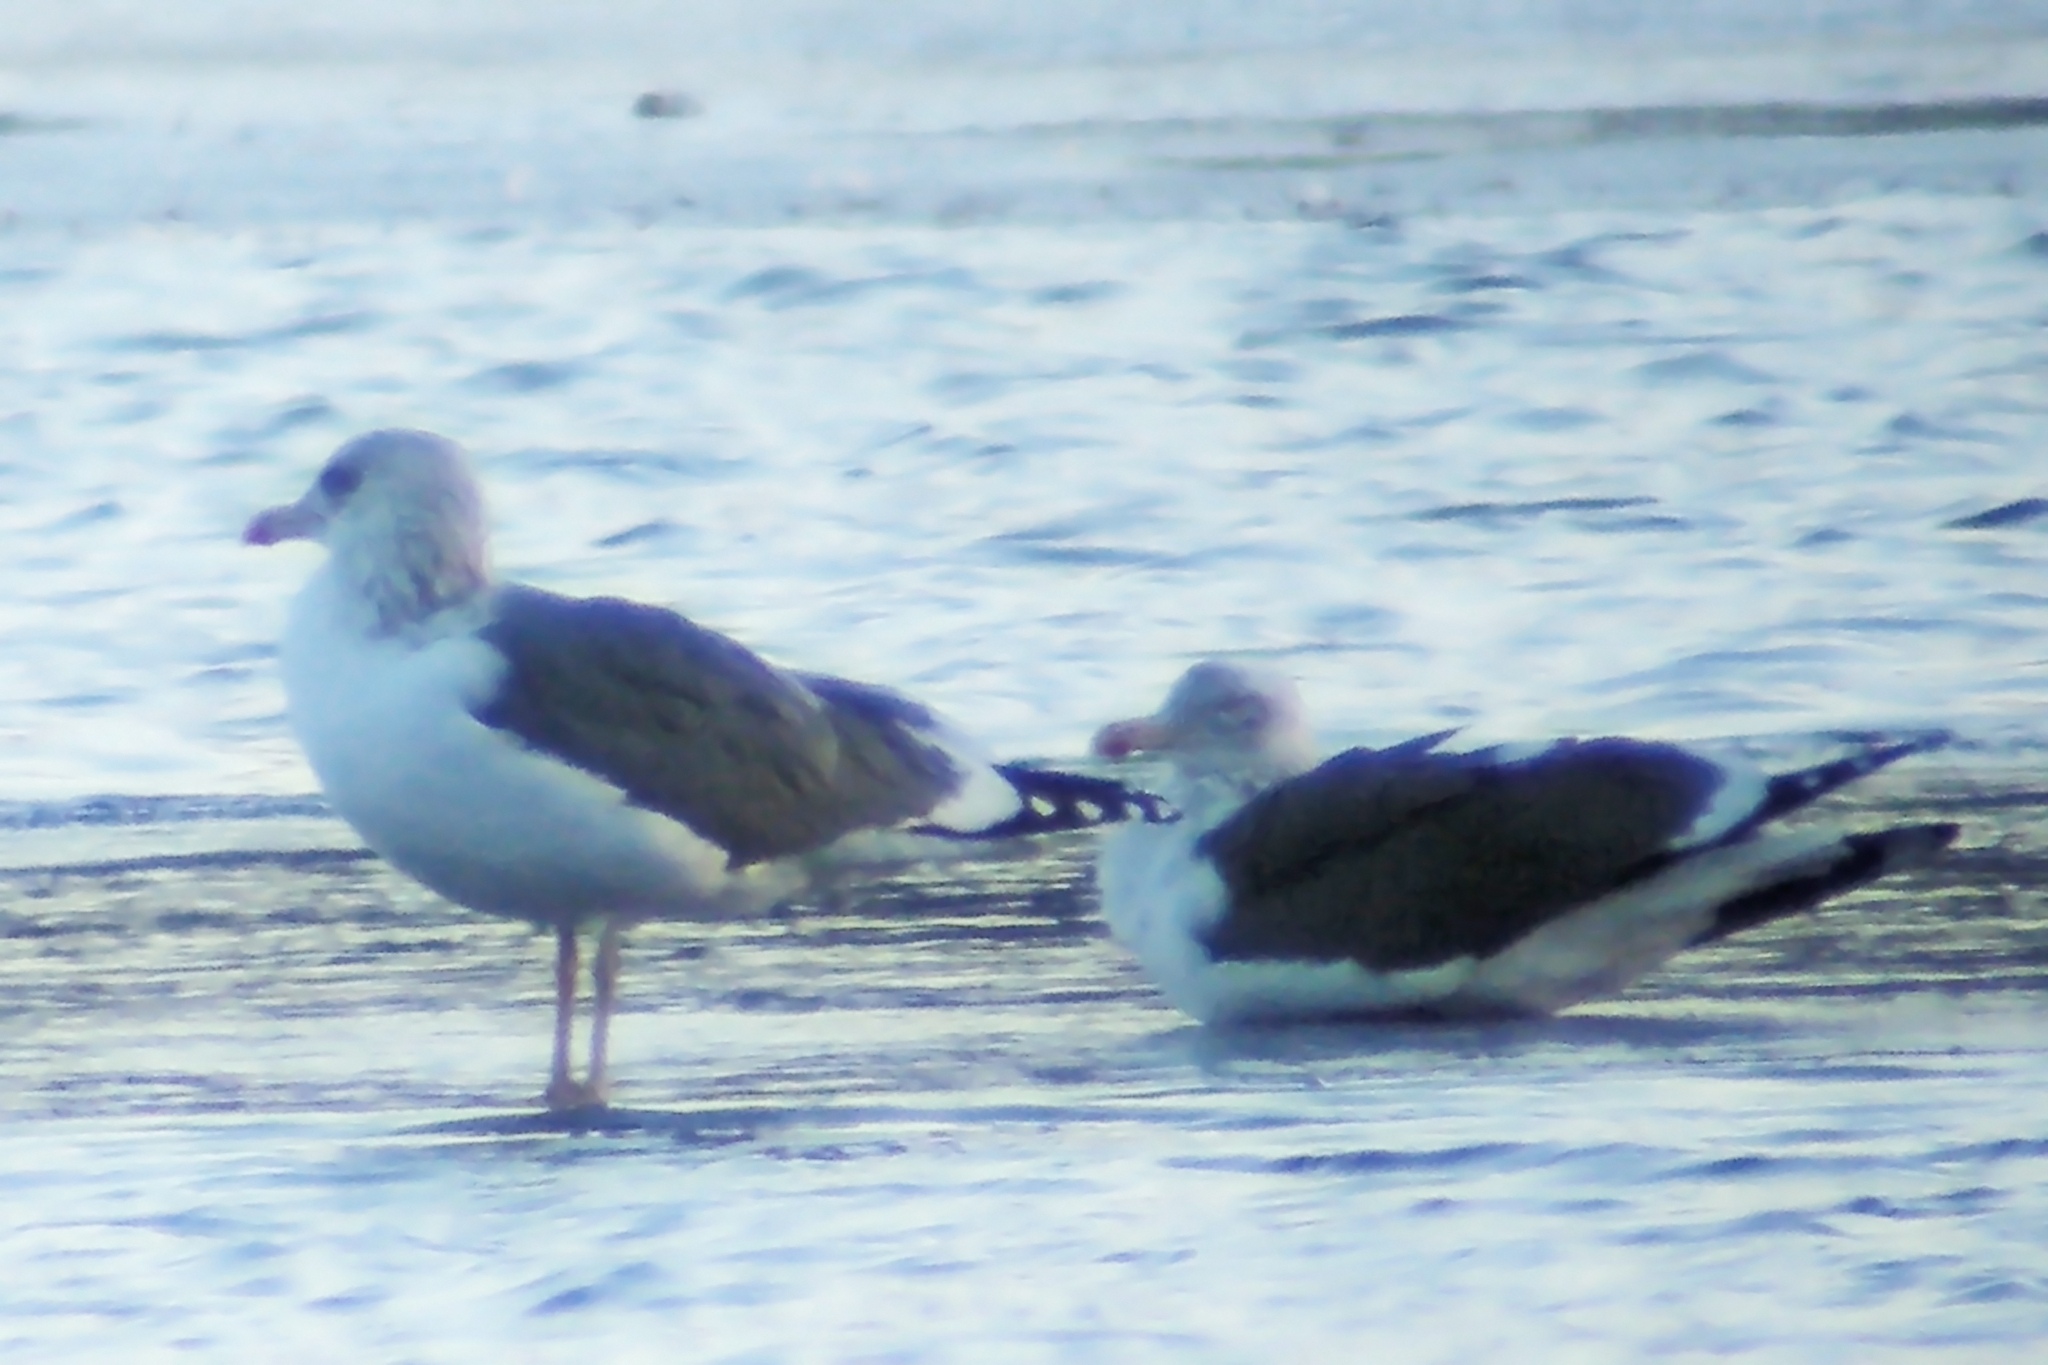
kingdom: Animalia
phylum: Chordata
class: Aves
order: Charadriiformes
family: Laridae
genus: Larus
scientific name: Larus fuscus
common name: Lesser black-backed gull
